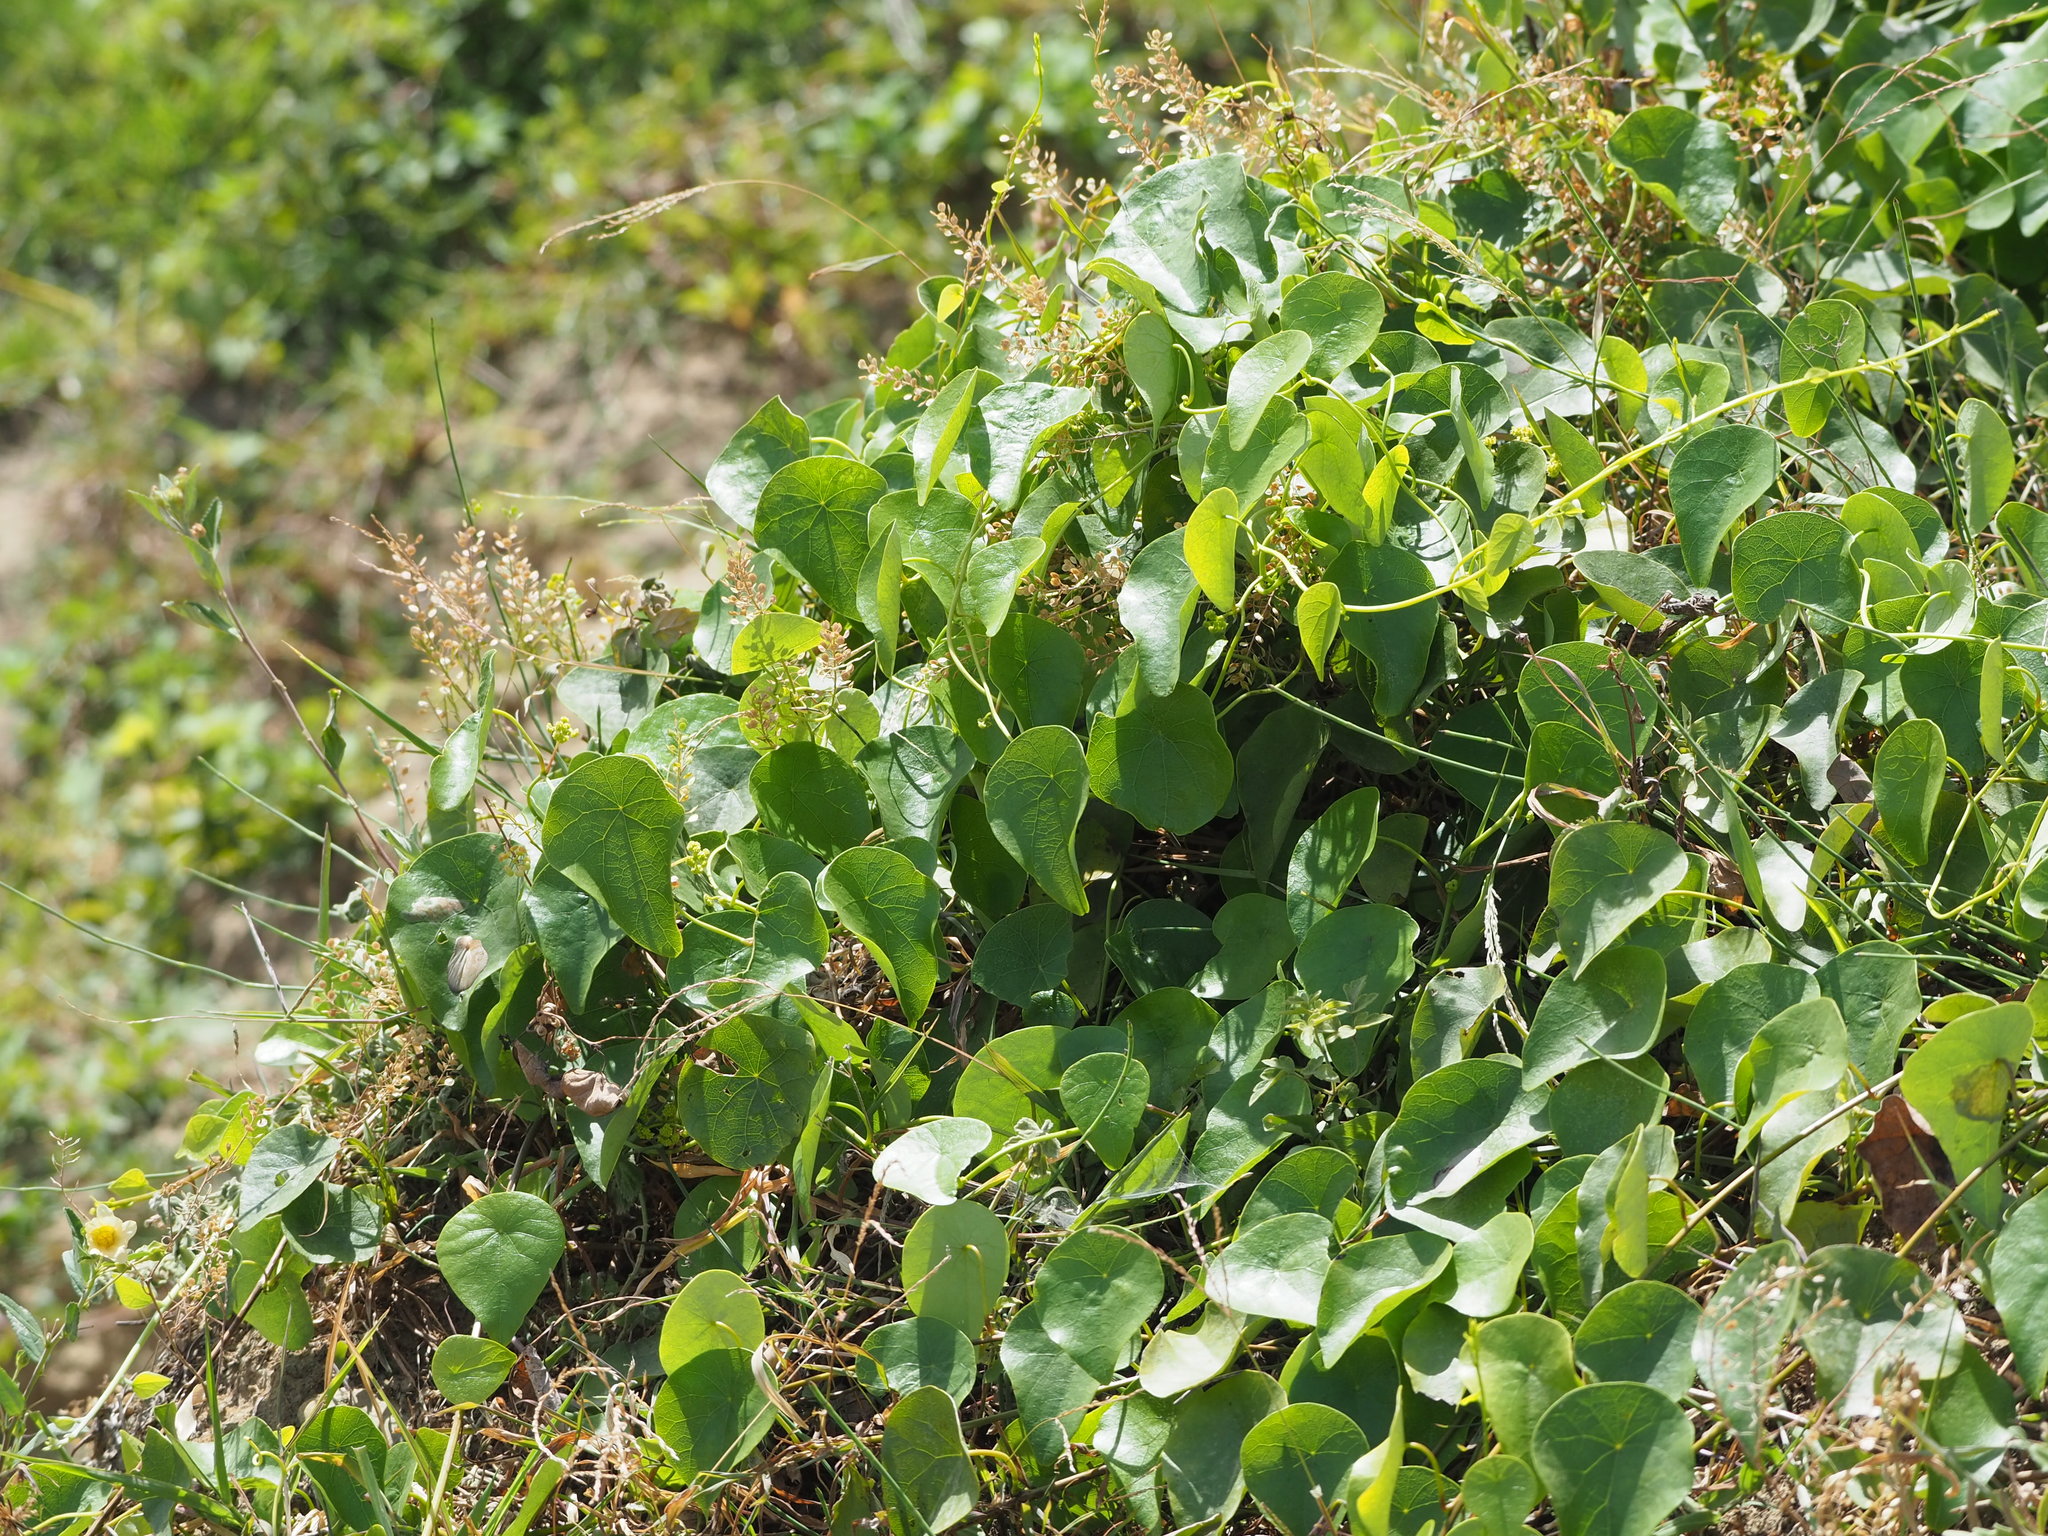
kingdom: Plantae
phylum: Tracheophyta
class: Magnoliopsida
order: Ranunculales
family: Menispermaceae
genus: Stephania
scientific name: Stephania japonica
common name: Snake vine
